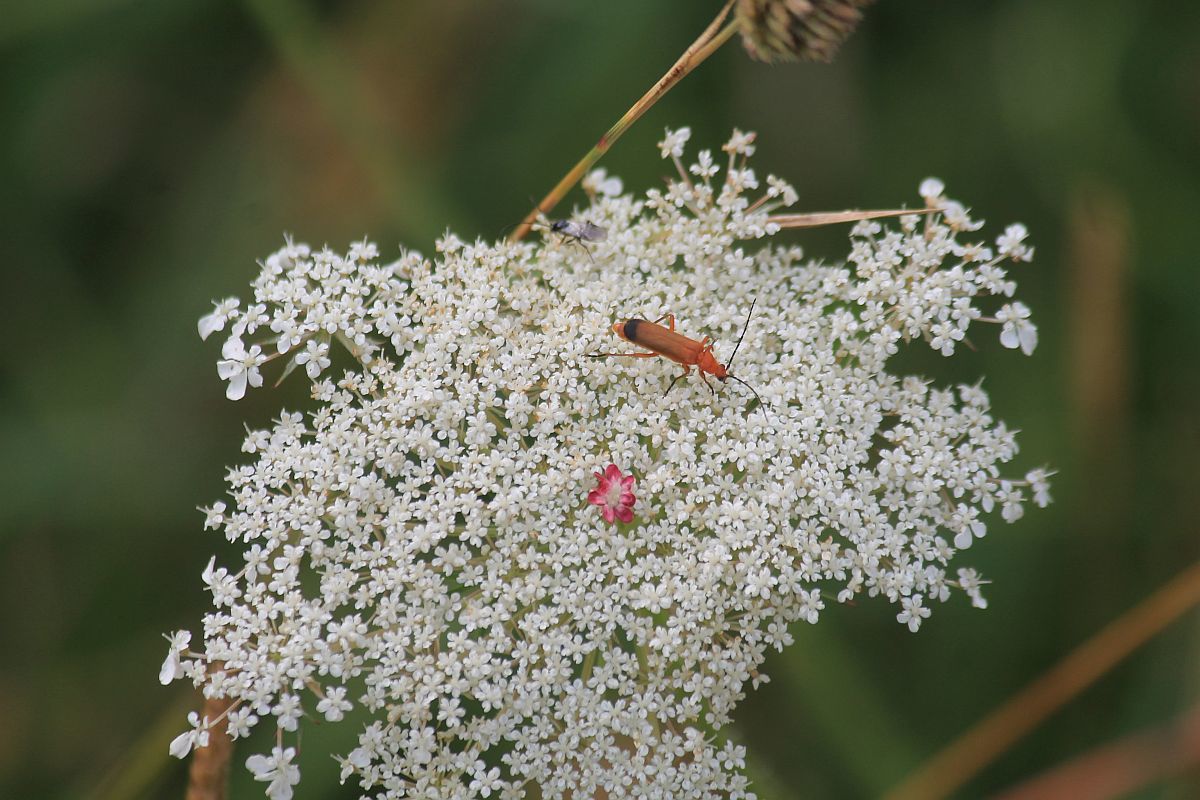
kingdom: Plantae
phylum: Tracheophyta
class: Magnoliopsida
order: Apiales
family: Apiaceae
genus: Daucus
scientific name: Daucus carota
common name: Wild carrot
